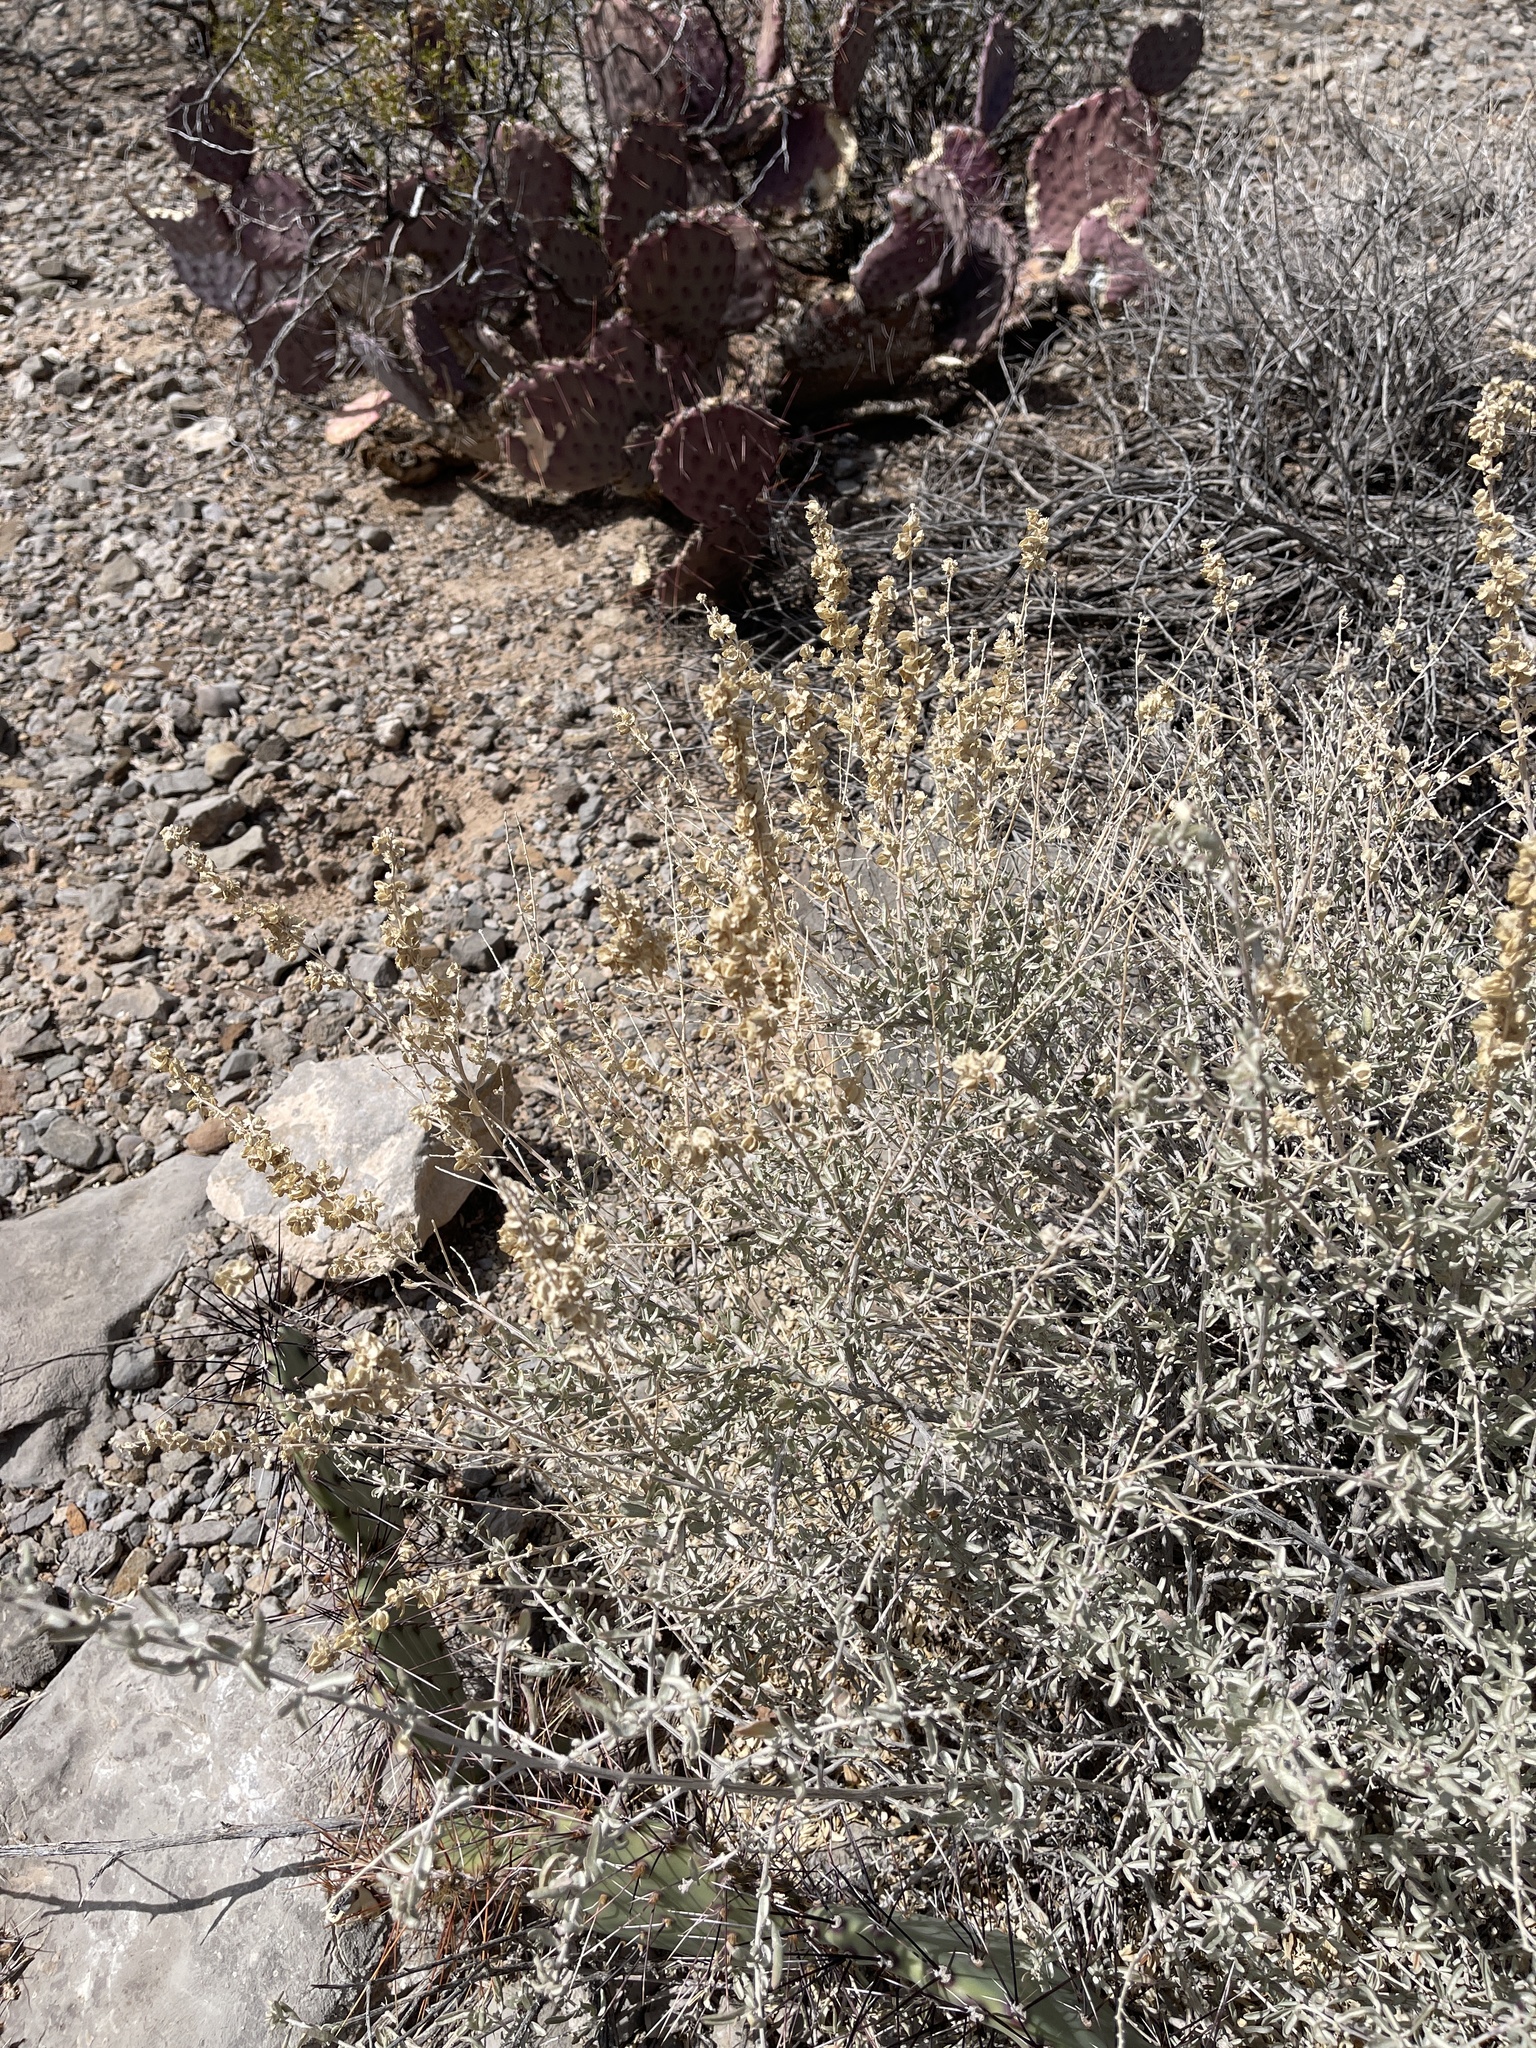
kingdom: Plantae
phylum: Tracheophyta
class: Magnoliopsida
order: Caryophyllales
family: Amaranthaceae
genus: Atriplex
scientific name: Atriplex canescens
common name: Four-wing saltbush
